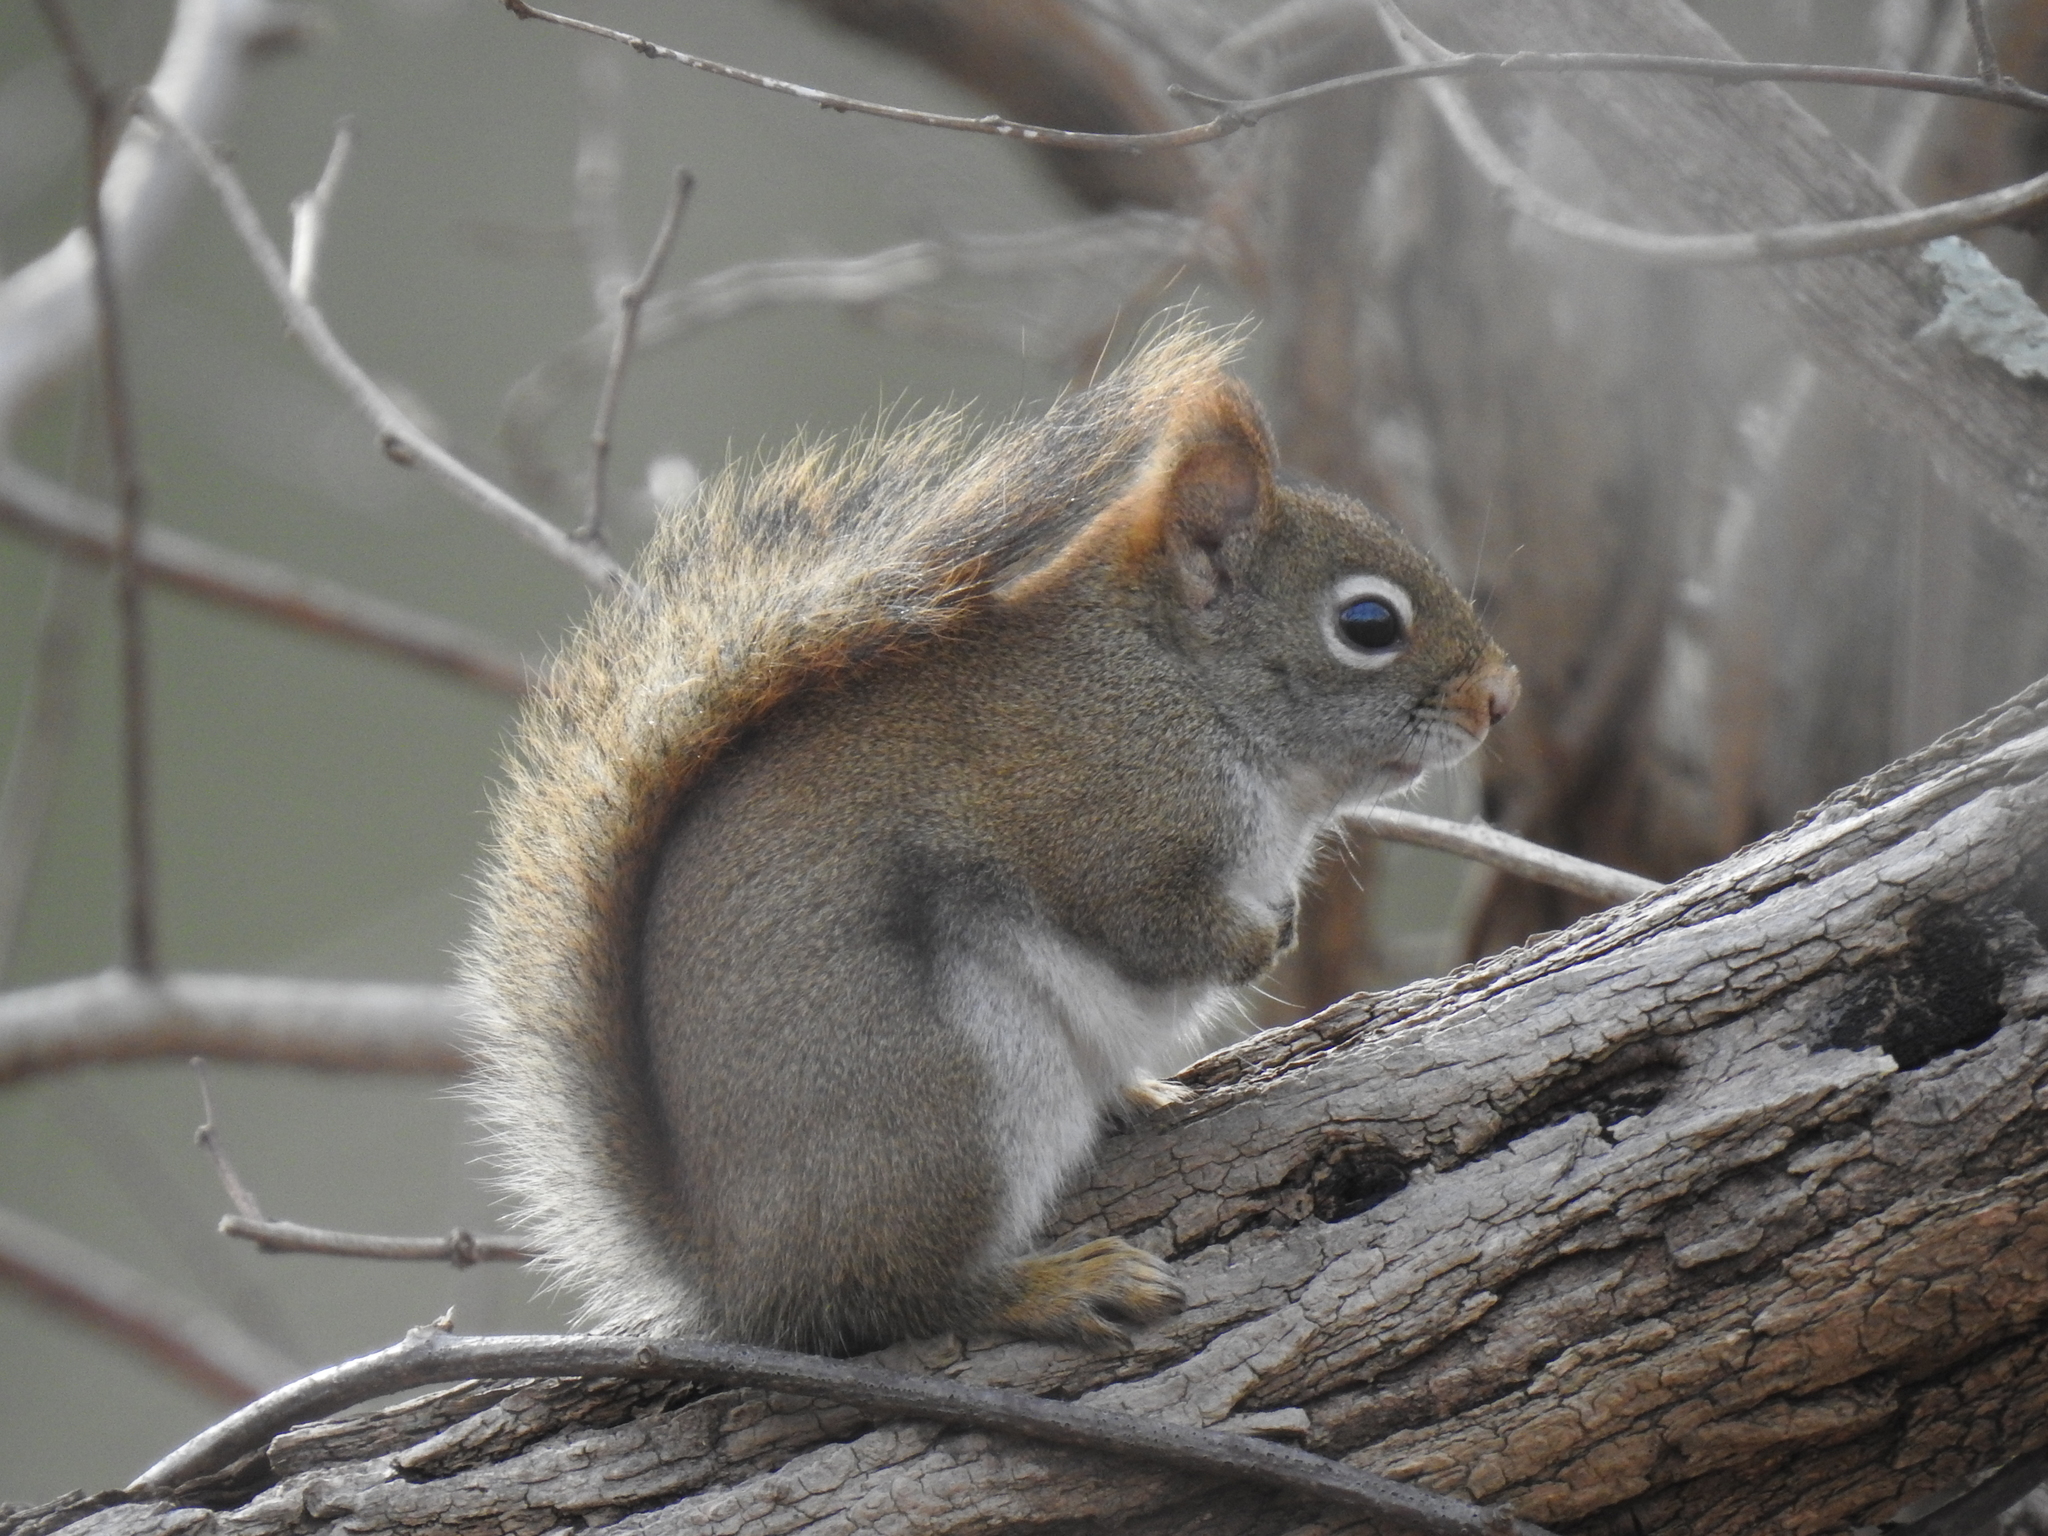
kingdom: Animalia
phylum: Chordata
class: Mammalia
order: Rodentia
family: Sciuridae
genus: Tamiasciurus
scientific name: Tamiasciurus hudsonicus
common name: Red squirrel
